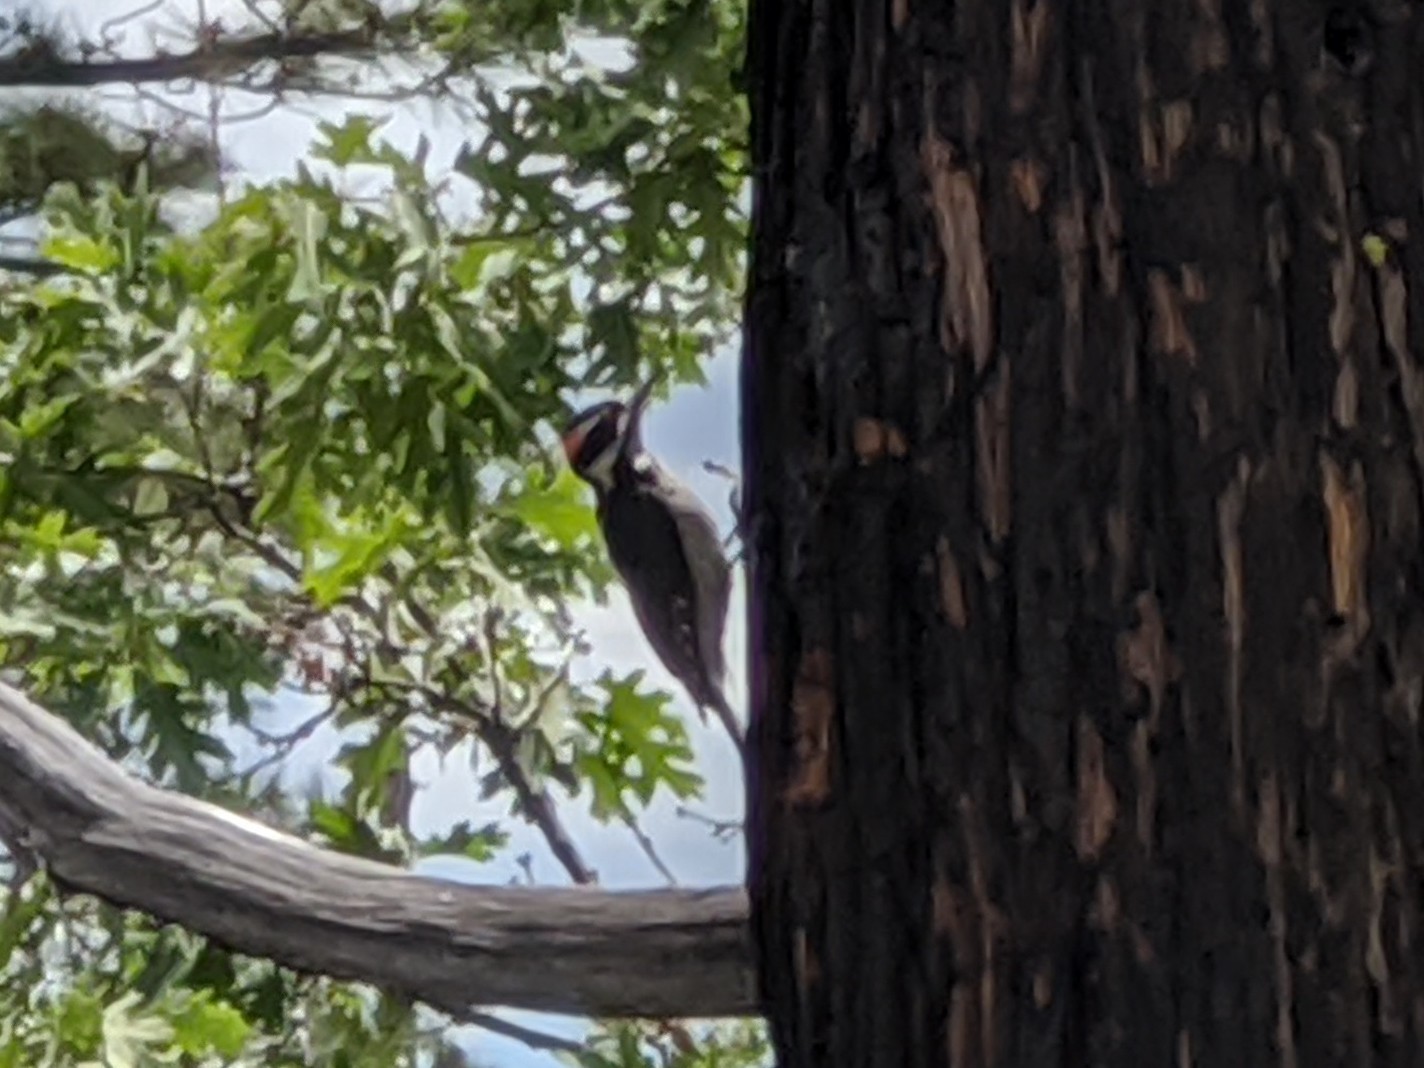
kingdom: Animalia
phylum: Chordata
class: Aves
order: Piciformes
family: Picidae
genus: Leuconotopicus
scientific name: Leuconotopicus villosus
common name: Hairy woodpecker
